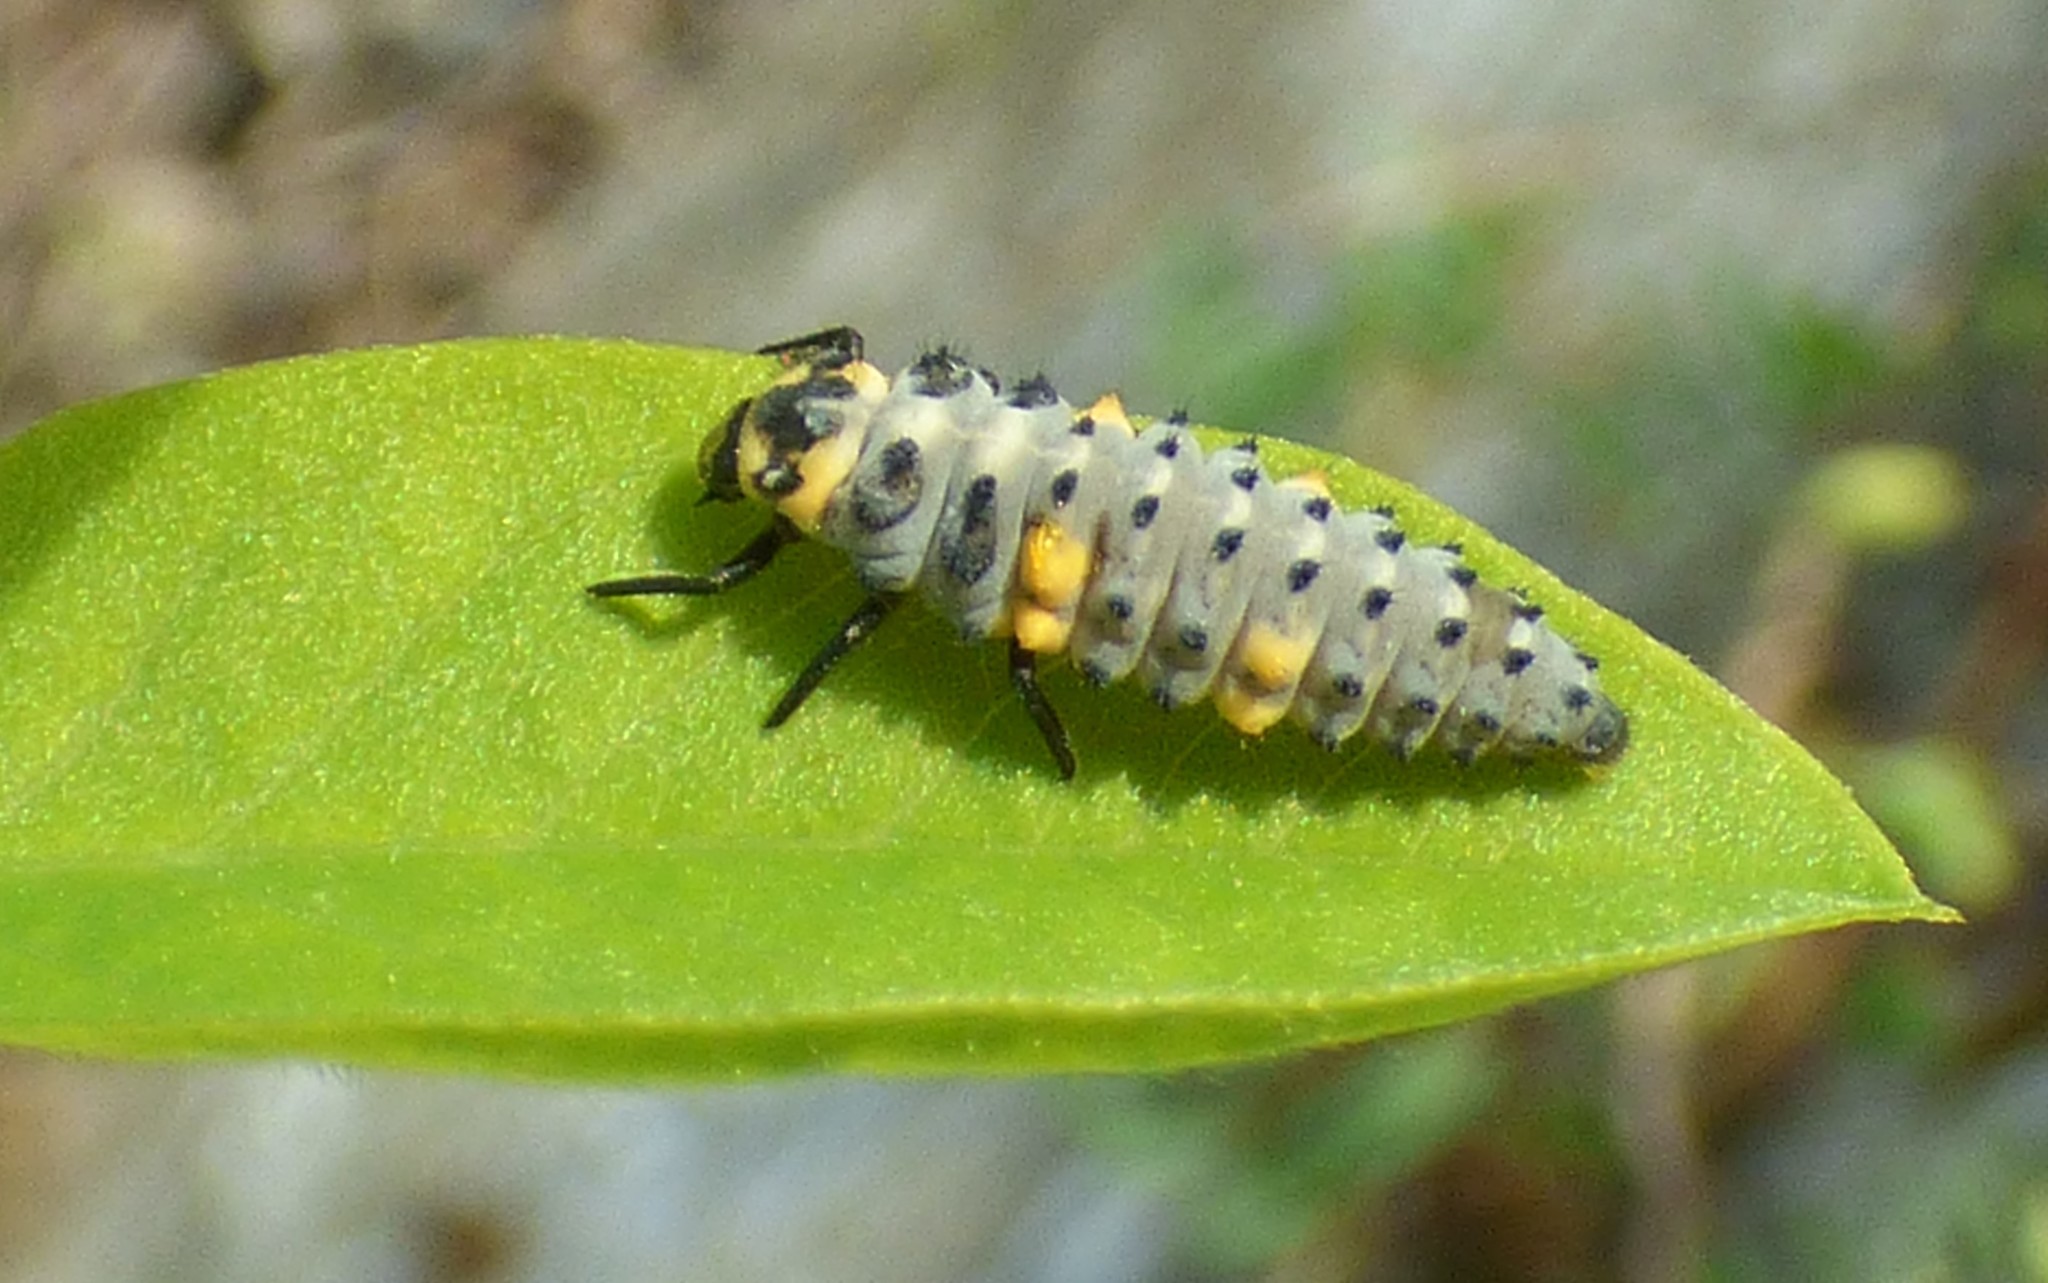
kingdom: Animalia
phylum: Arthropoda
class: Insecta
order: Coleoptera
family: Coccinellidae
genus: Coccinella
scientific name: Coccinella septempunctata
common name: Sevenspotted lady beetle
